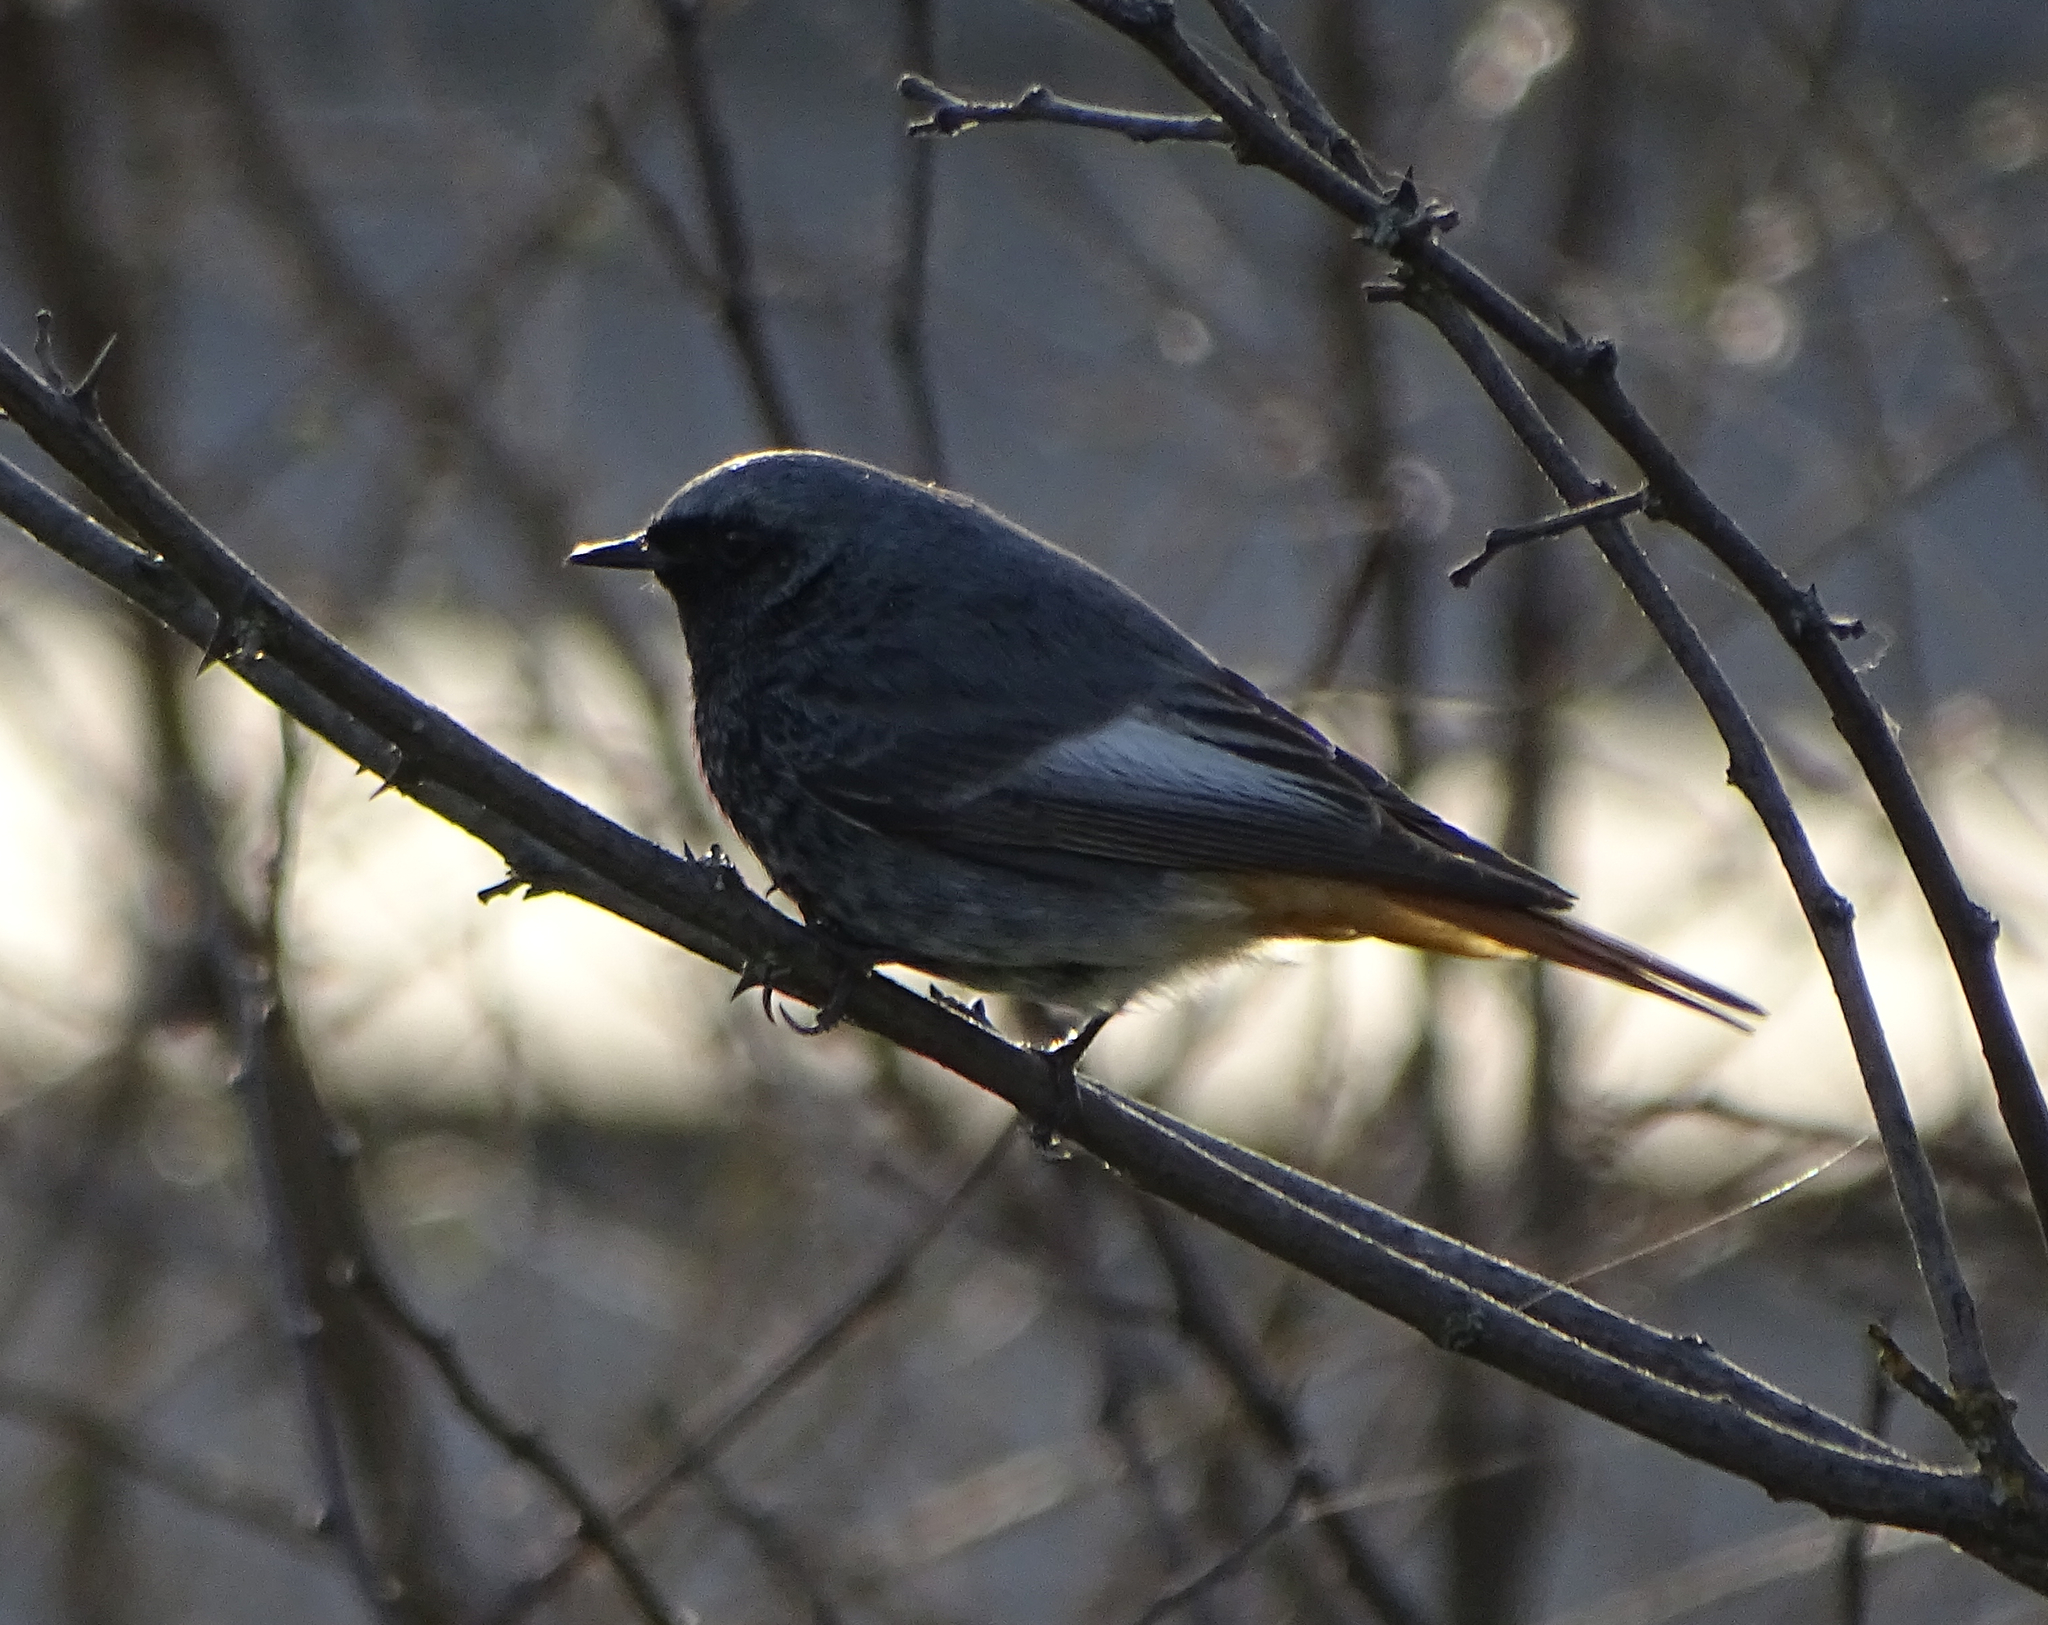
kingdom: Animalia
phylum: Chordata
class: Aves
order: Passeriformes
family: Muscicapidae
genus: Phoenicurus
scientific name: Phoenicurus ochruros
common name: Black redstart
